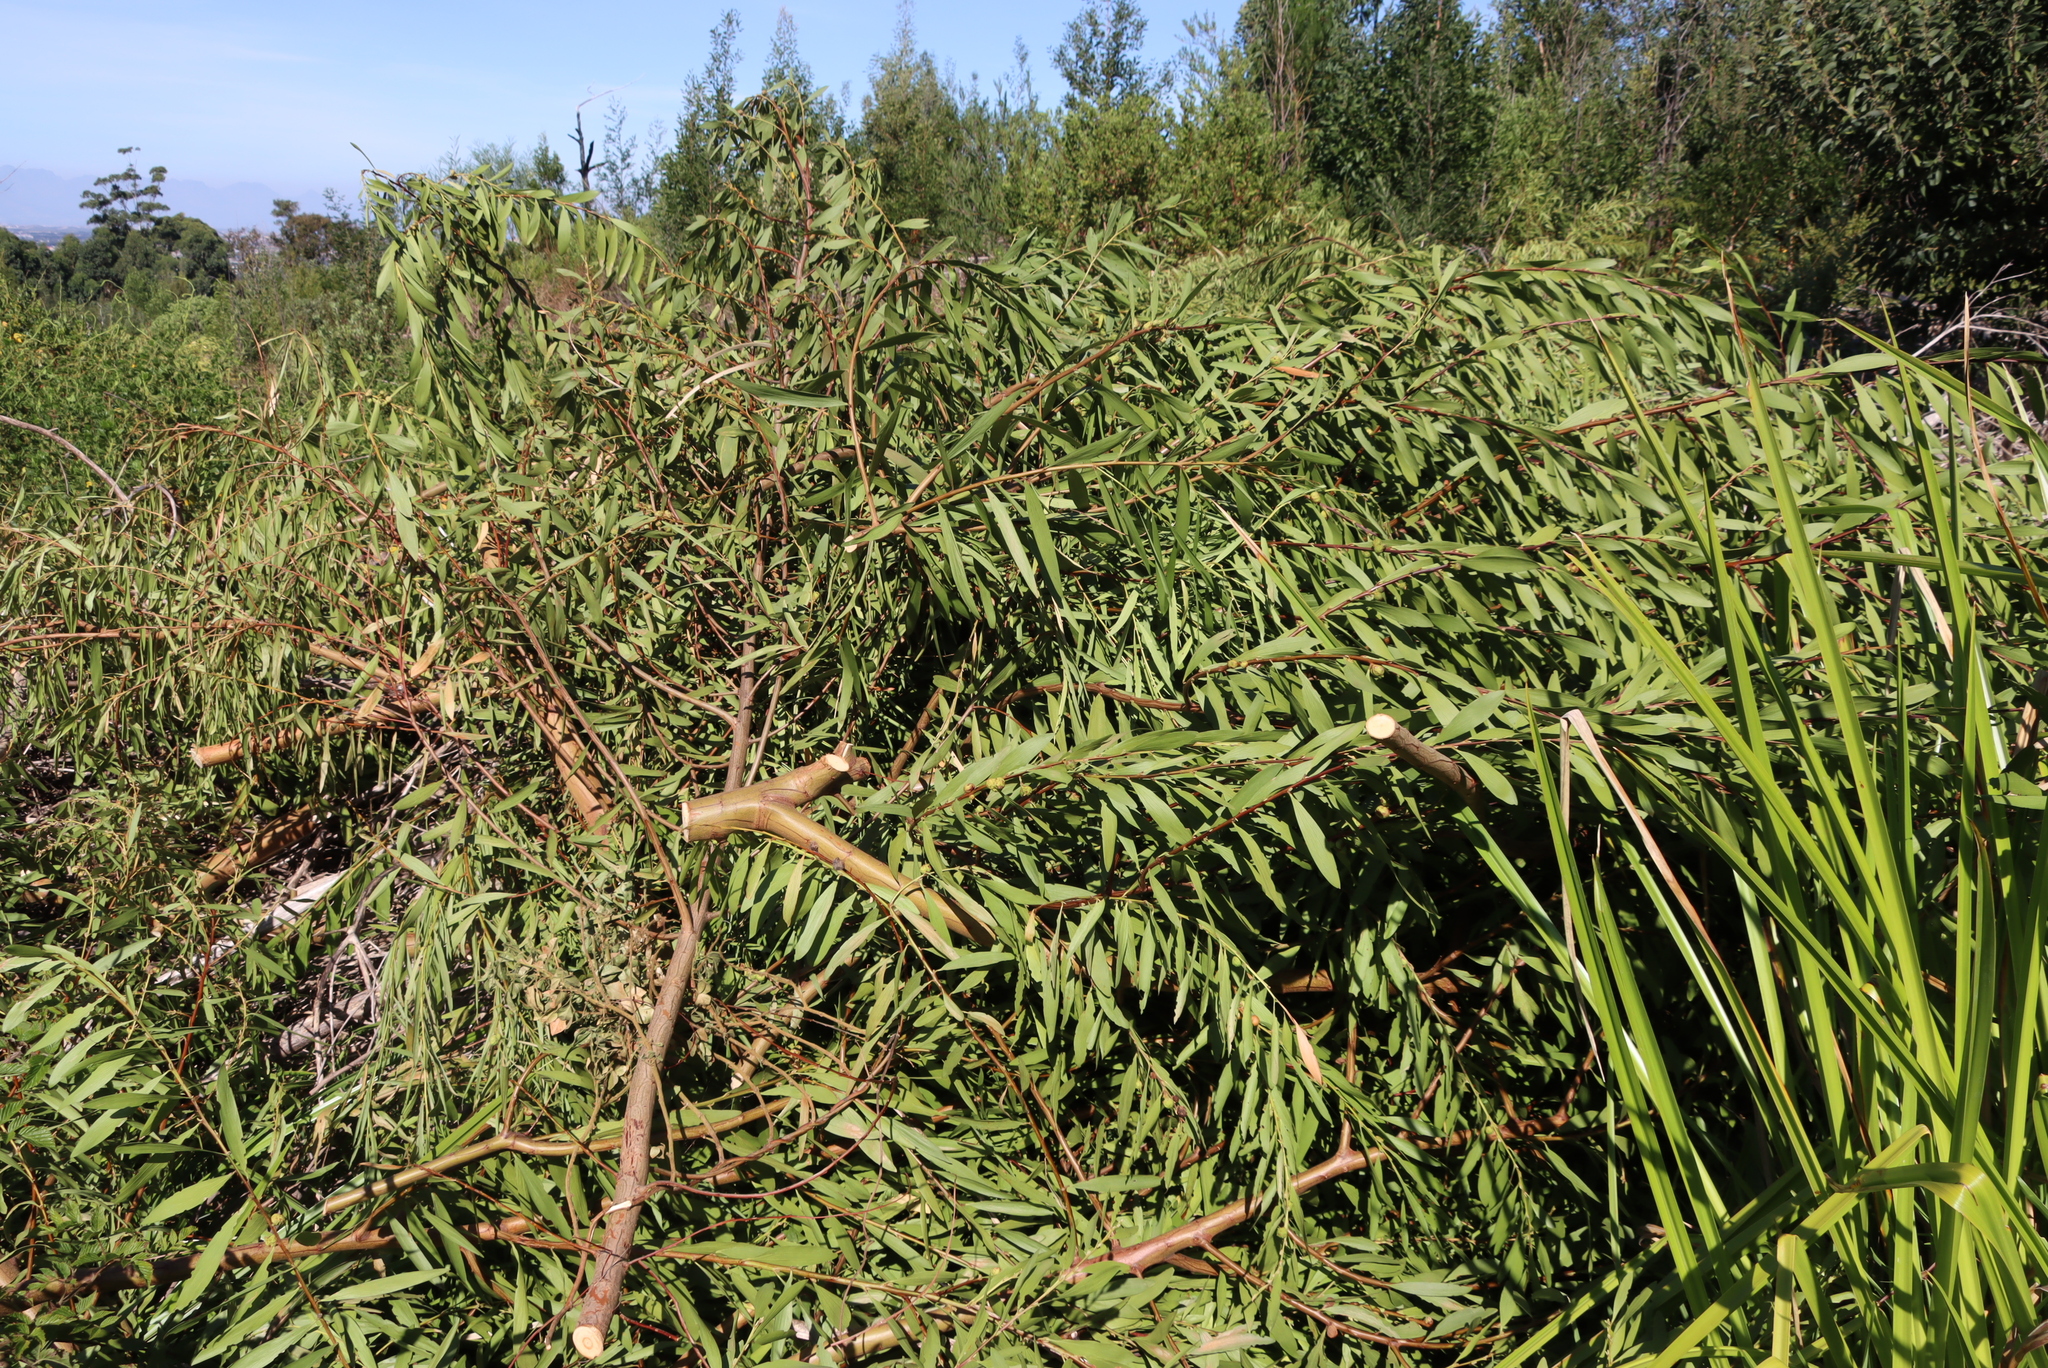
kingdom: Plantae
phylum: Tracheophyta
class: Magnoliopsida
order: Fabales
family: Fabaceae
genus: Acacia
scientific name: Acacia longifolia
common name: Sydney golden wattle
